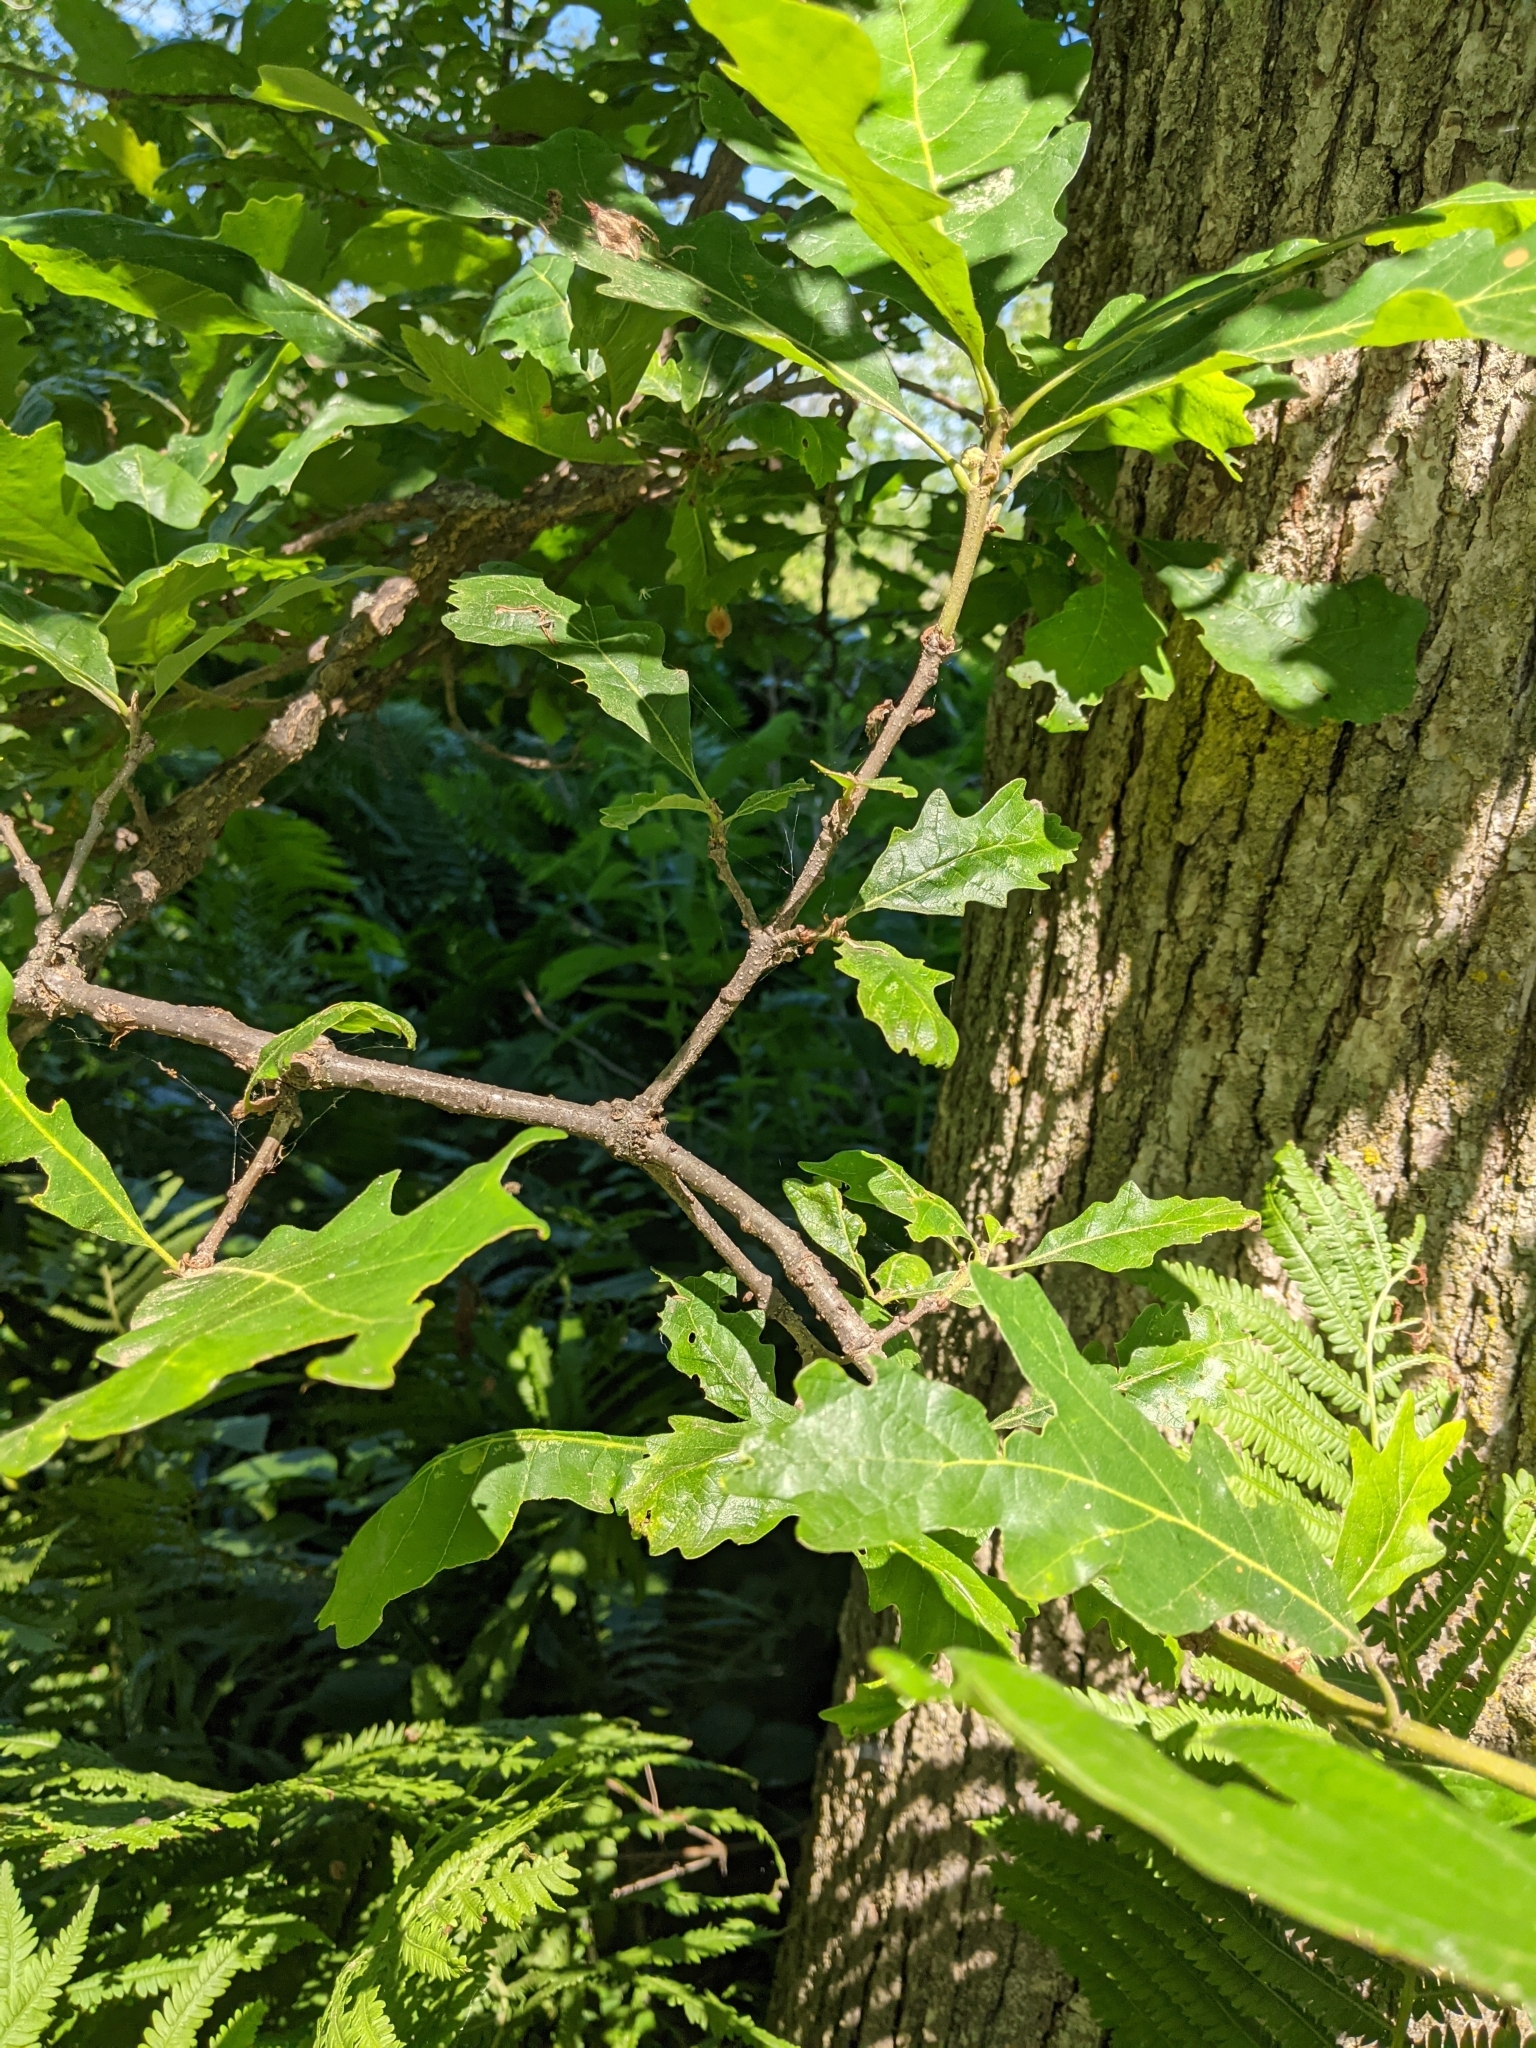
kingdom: Plantae
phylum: Tracheophyta
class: Magnoliopsida
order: Fagales
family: Fagaceae
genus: Quercus
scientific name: Quercus macrocarpa
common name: Bur oak
